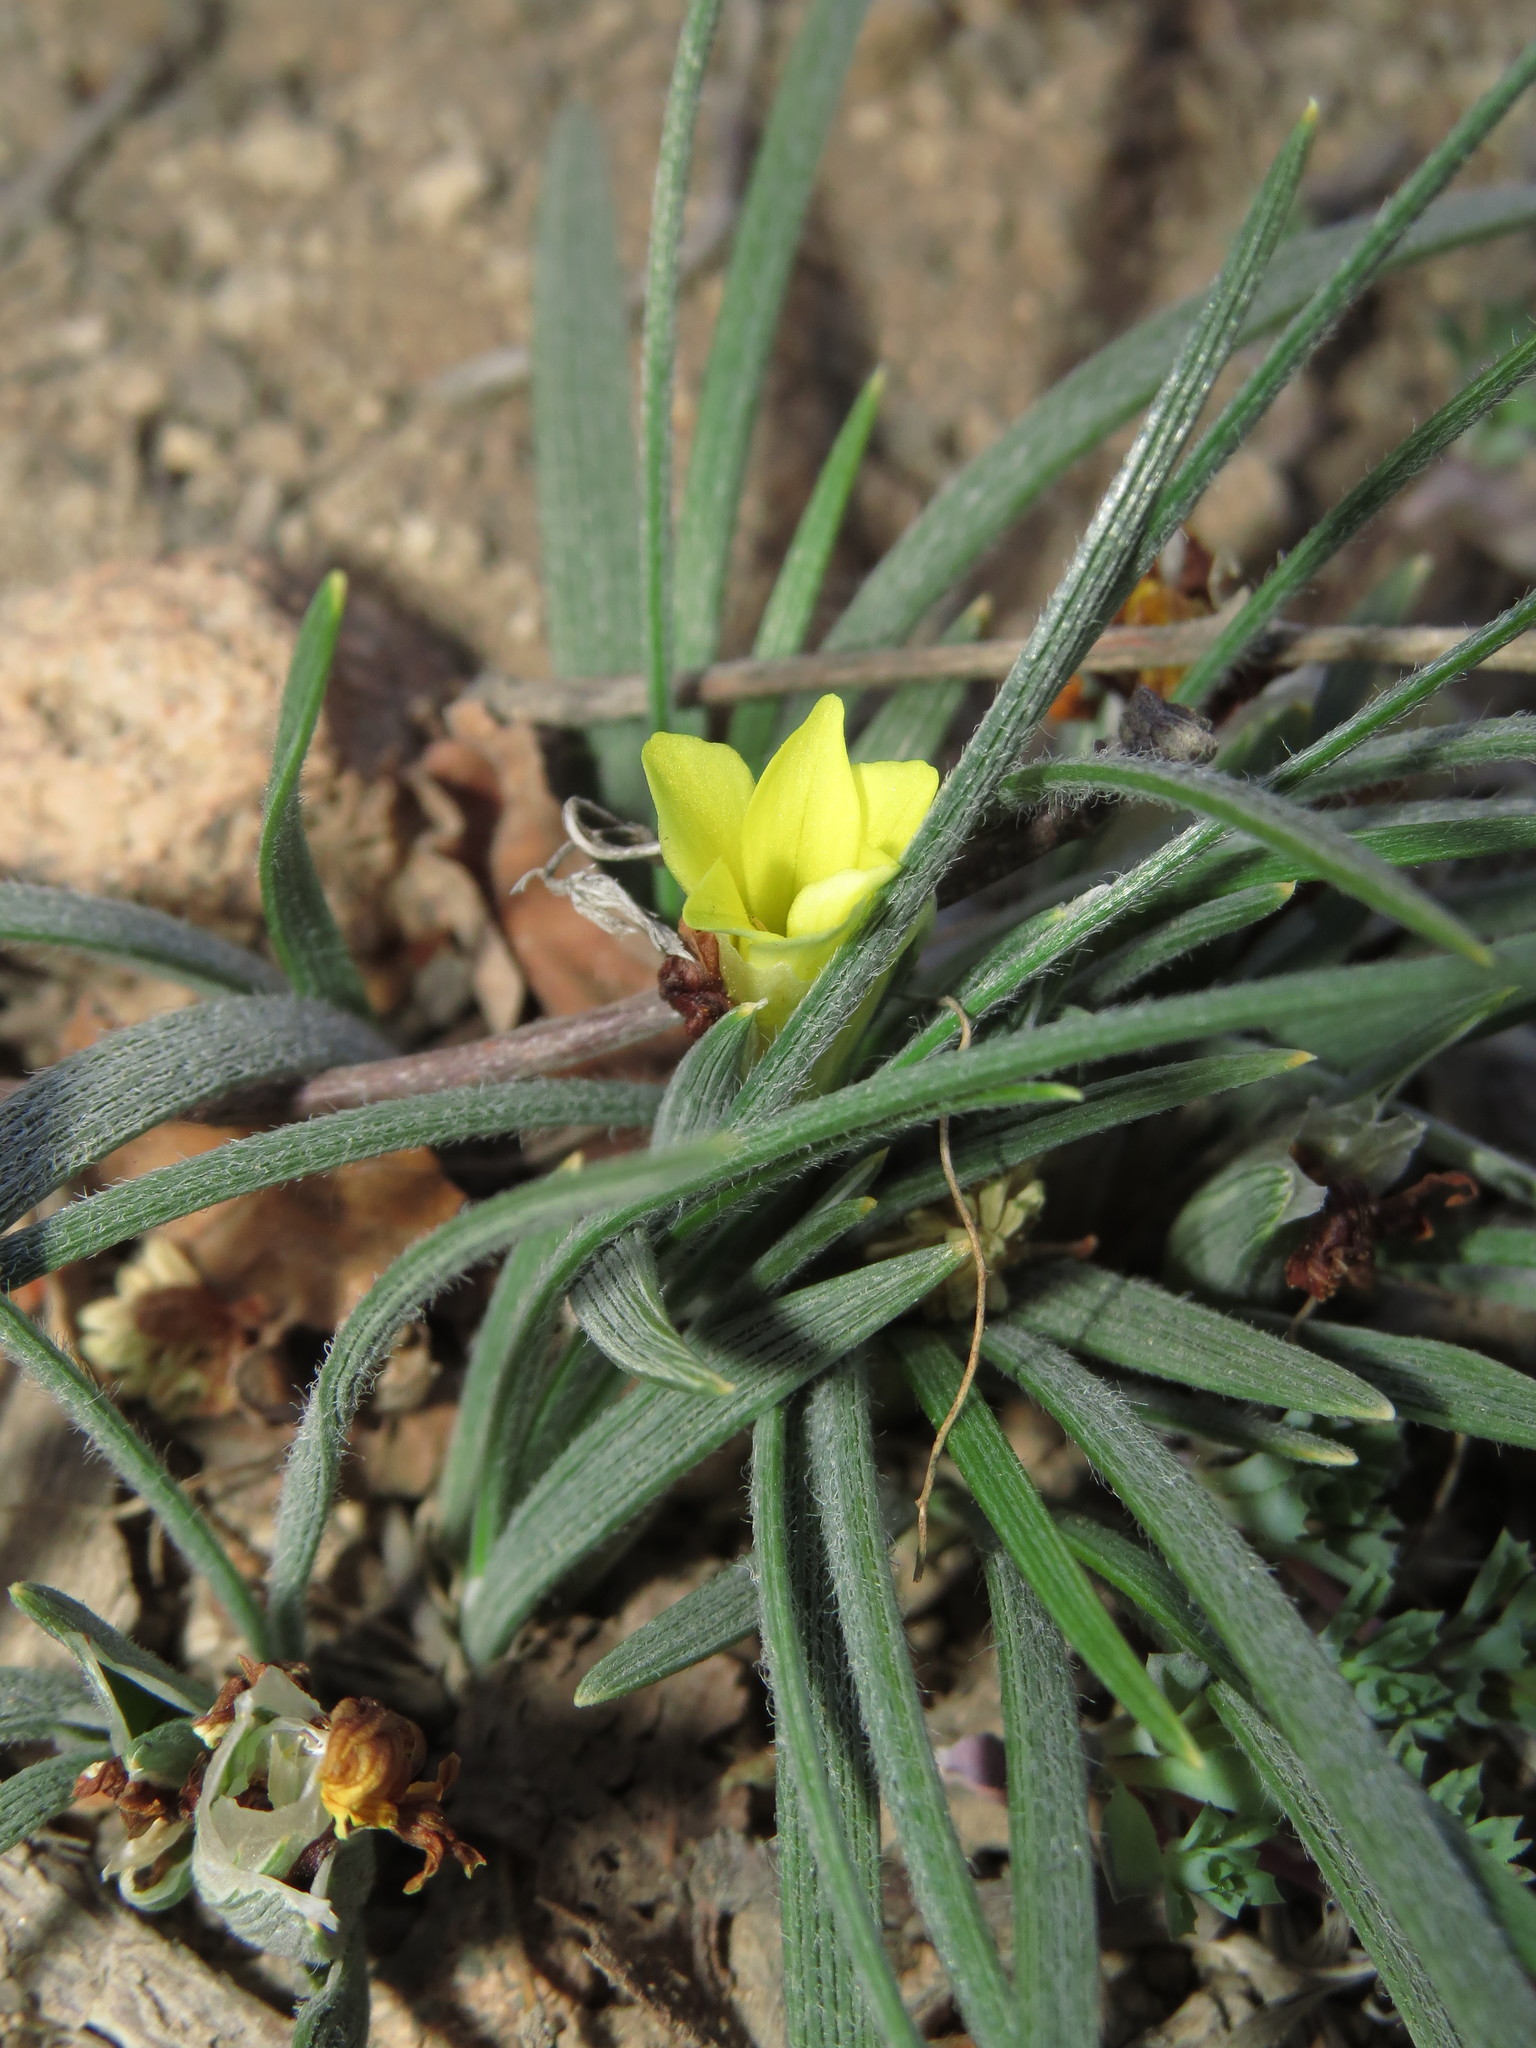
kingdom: Plantae
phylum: Tracheophyta
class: Liliopsida
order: Asparagales
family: Iridaceae
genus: Olsynium
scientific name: Olsynium chrysochromum
